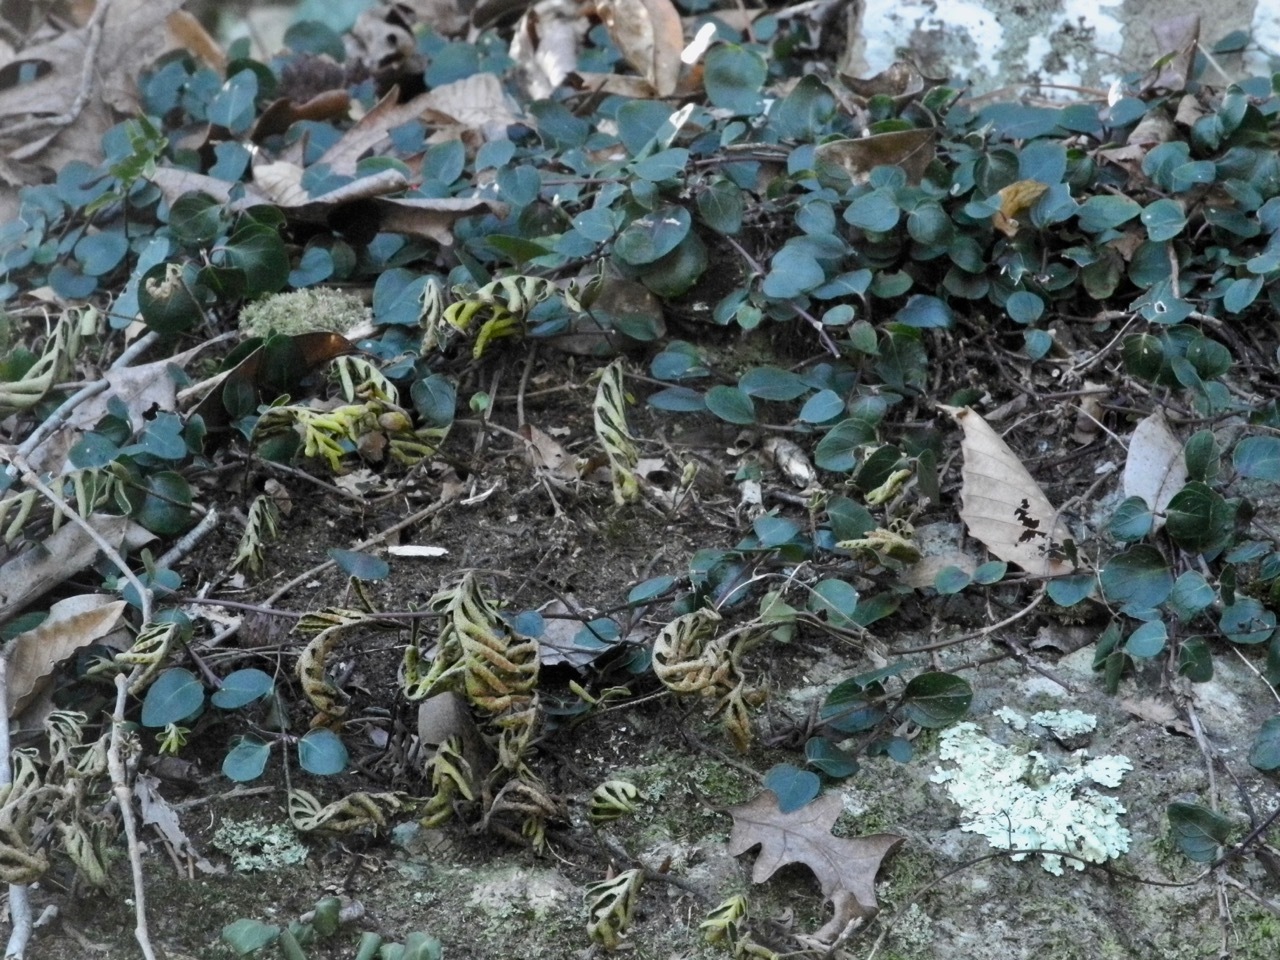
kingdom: Plantae
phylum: Tracheophyta
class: Magnoliopsida
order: Gentianales
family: Rubiaceae
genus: Mitchella
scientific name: Mitchella repens
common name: Partridge-berry
